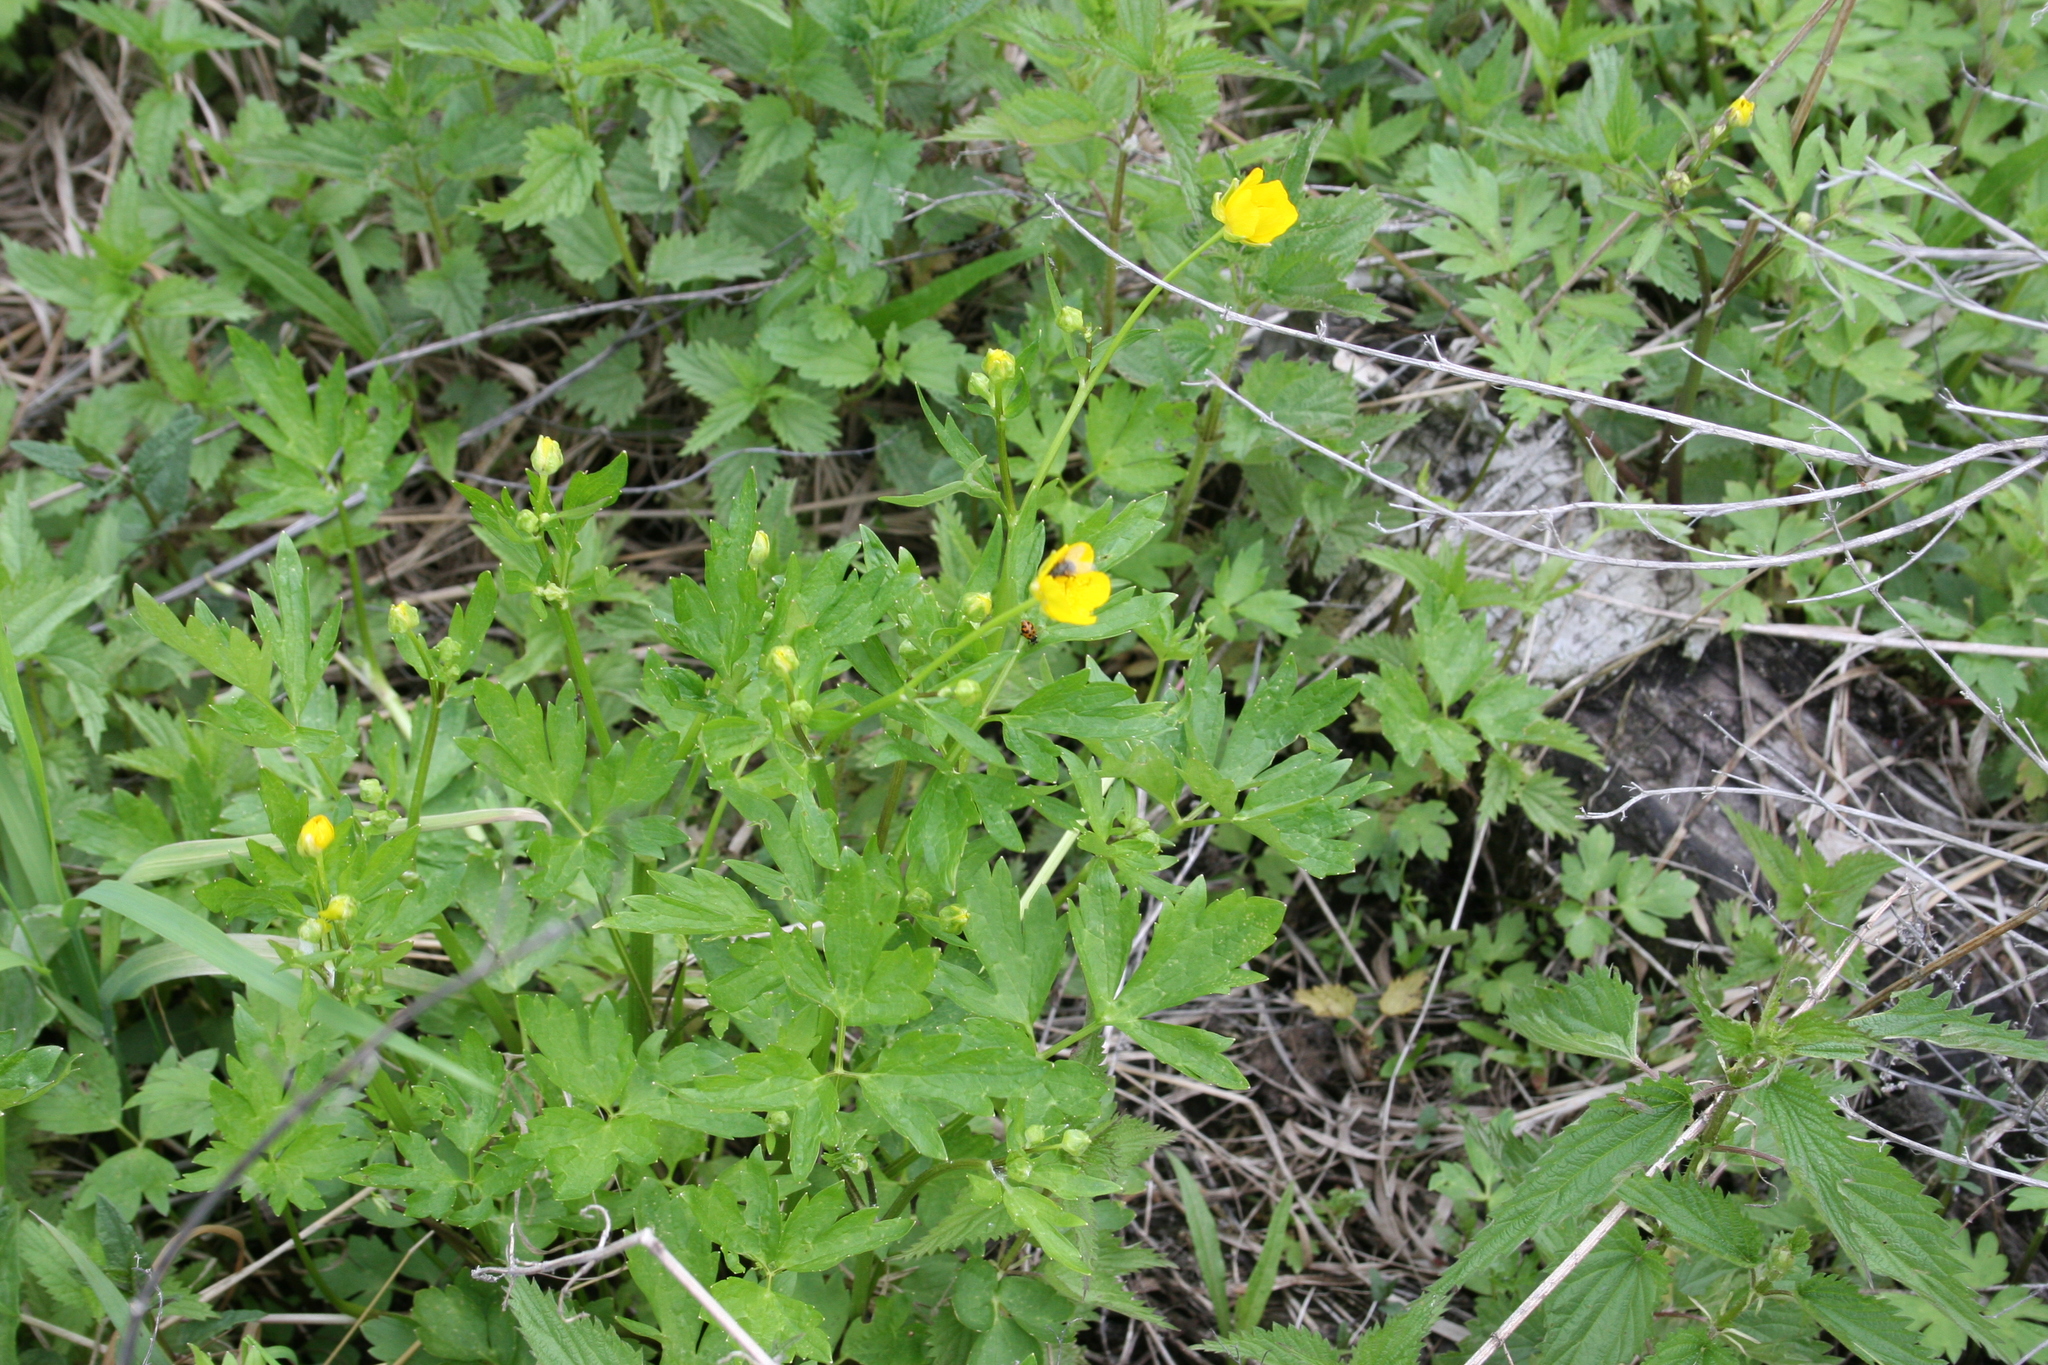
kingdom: Plantae
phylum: Tracheophyta
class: Magnoliopsida
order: Ranunculales
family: Ranunculaceae
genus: Ranunculus
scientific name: Ranunculus repens
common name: Creeping buttercup
